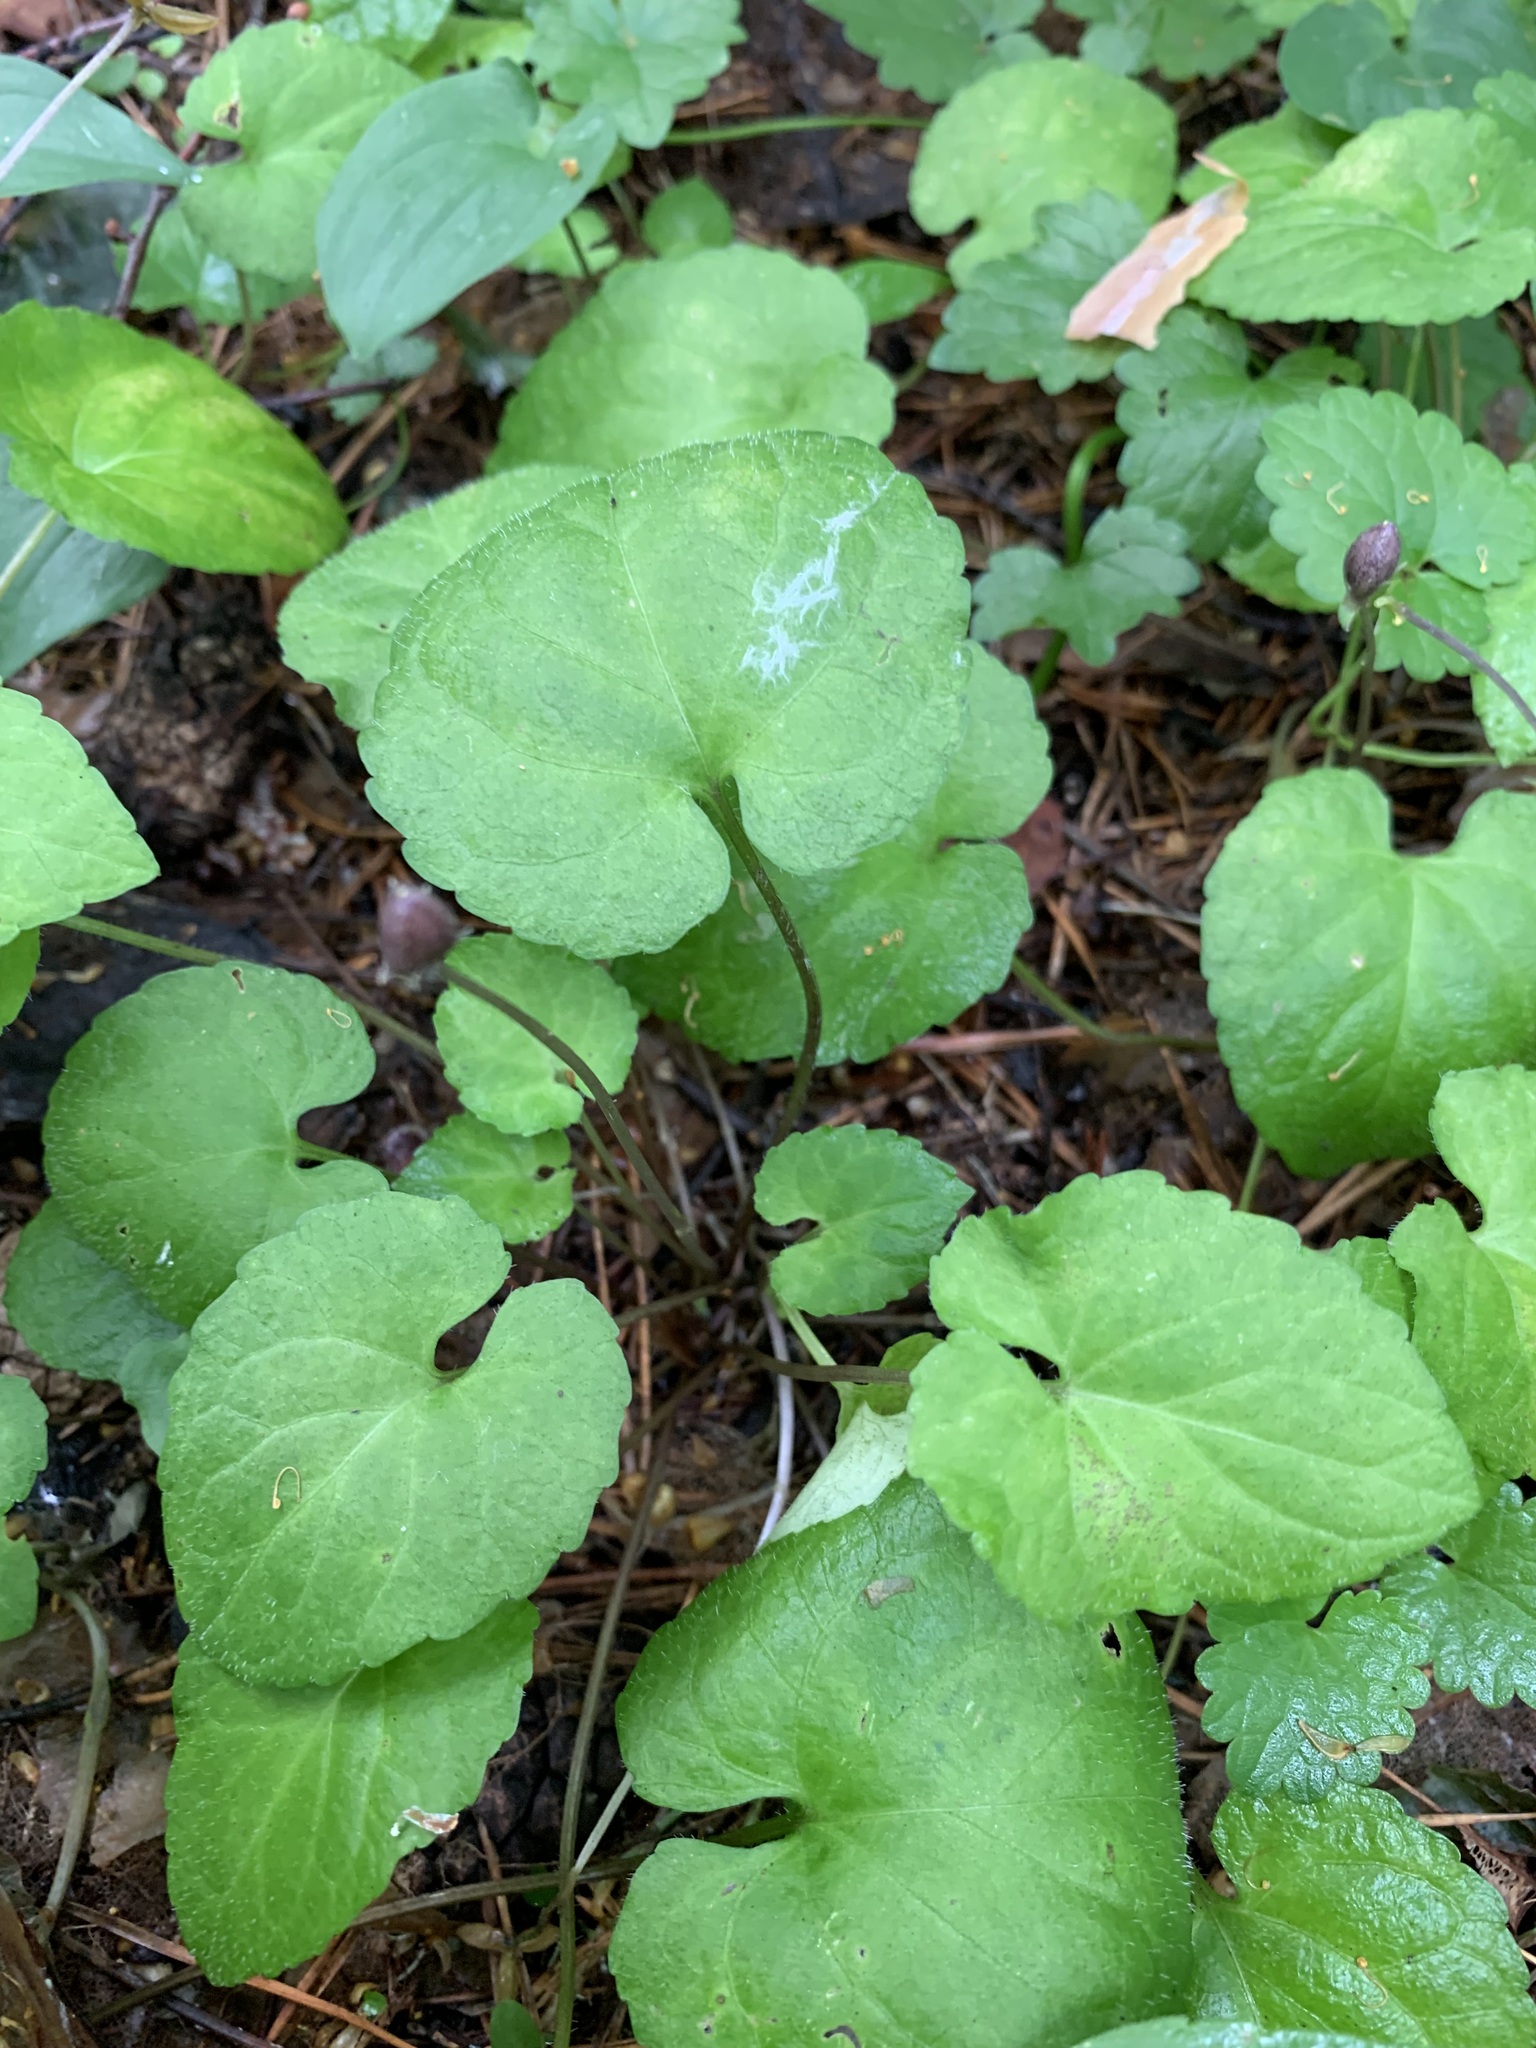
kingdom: Plantae
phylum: Tracheophyta
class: Magnoliopsida
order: Malpighiales
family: Violaceae
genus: Viola
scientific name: Viola selkirkii
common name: Selkirk's violet
